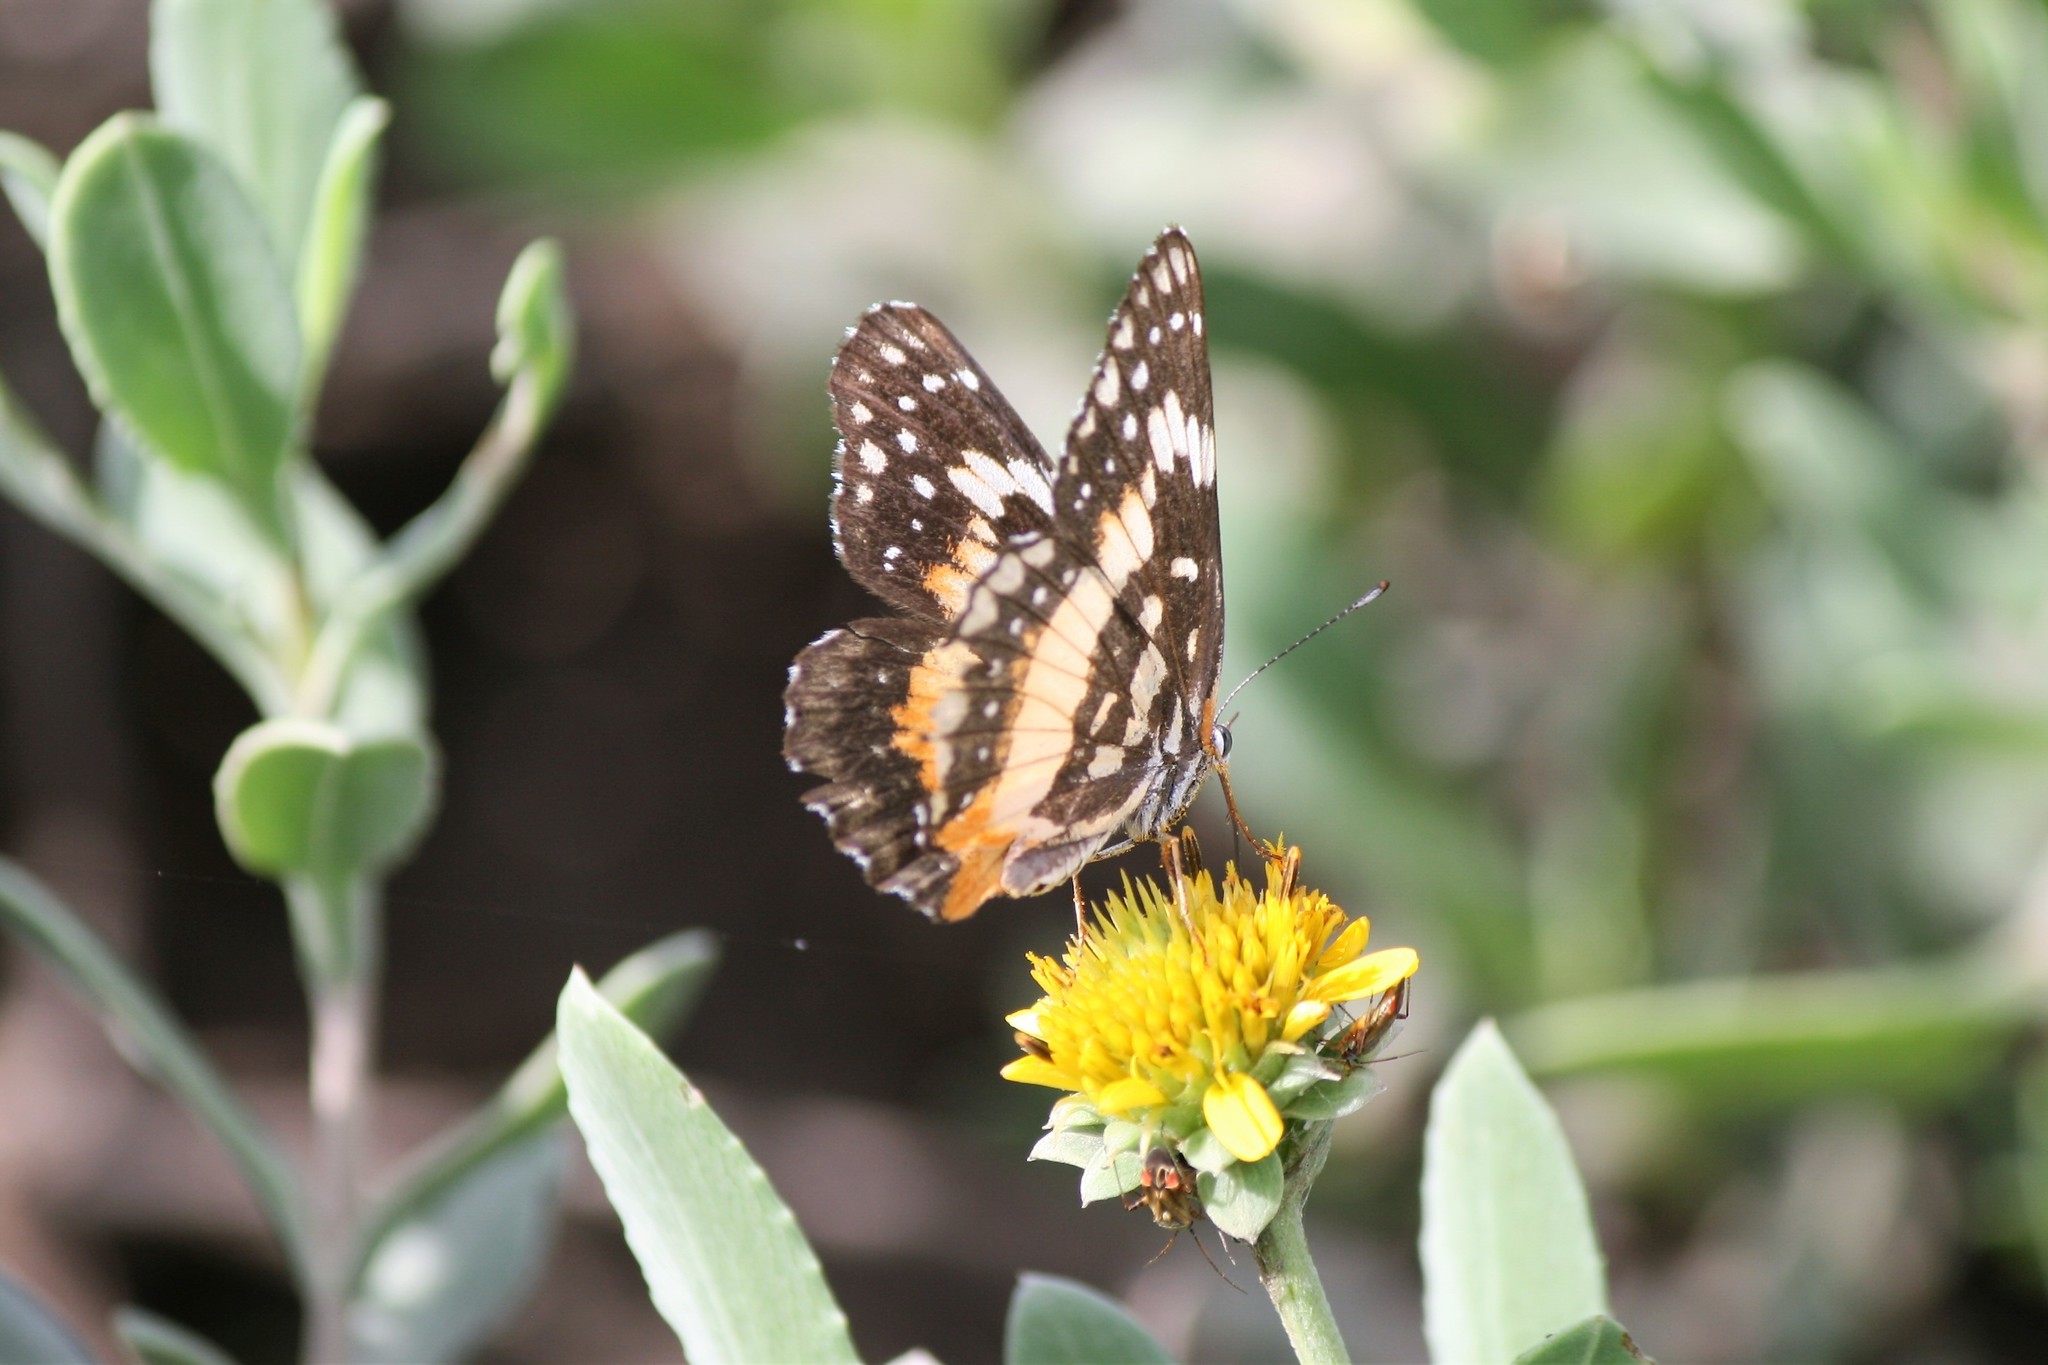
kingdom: Animalia
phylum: Arthropoda
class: Insecta
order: Lepidoptera
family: Nymphalidae
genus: Chlosyne
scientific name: Chlosyne lacinia
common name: Bordered patch
